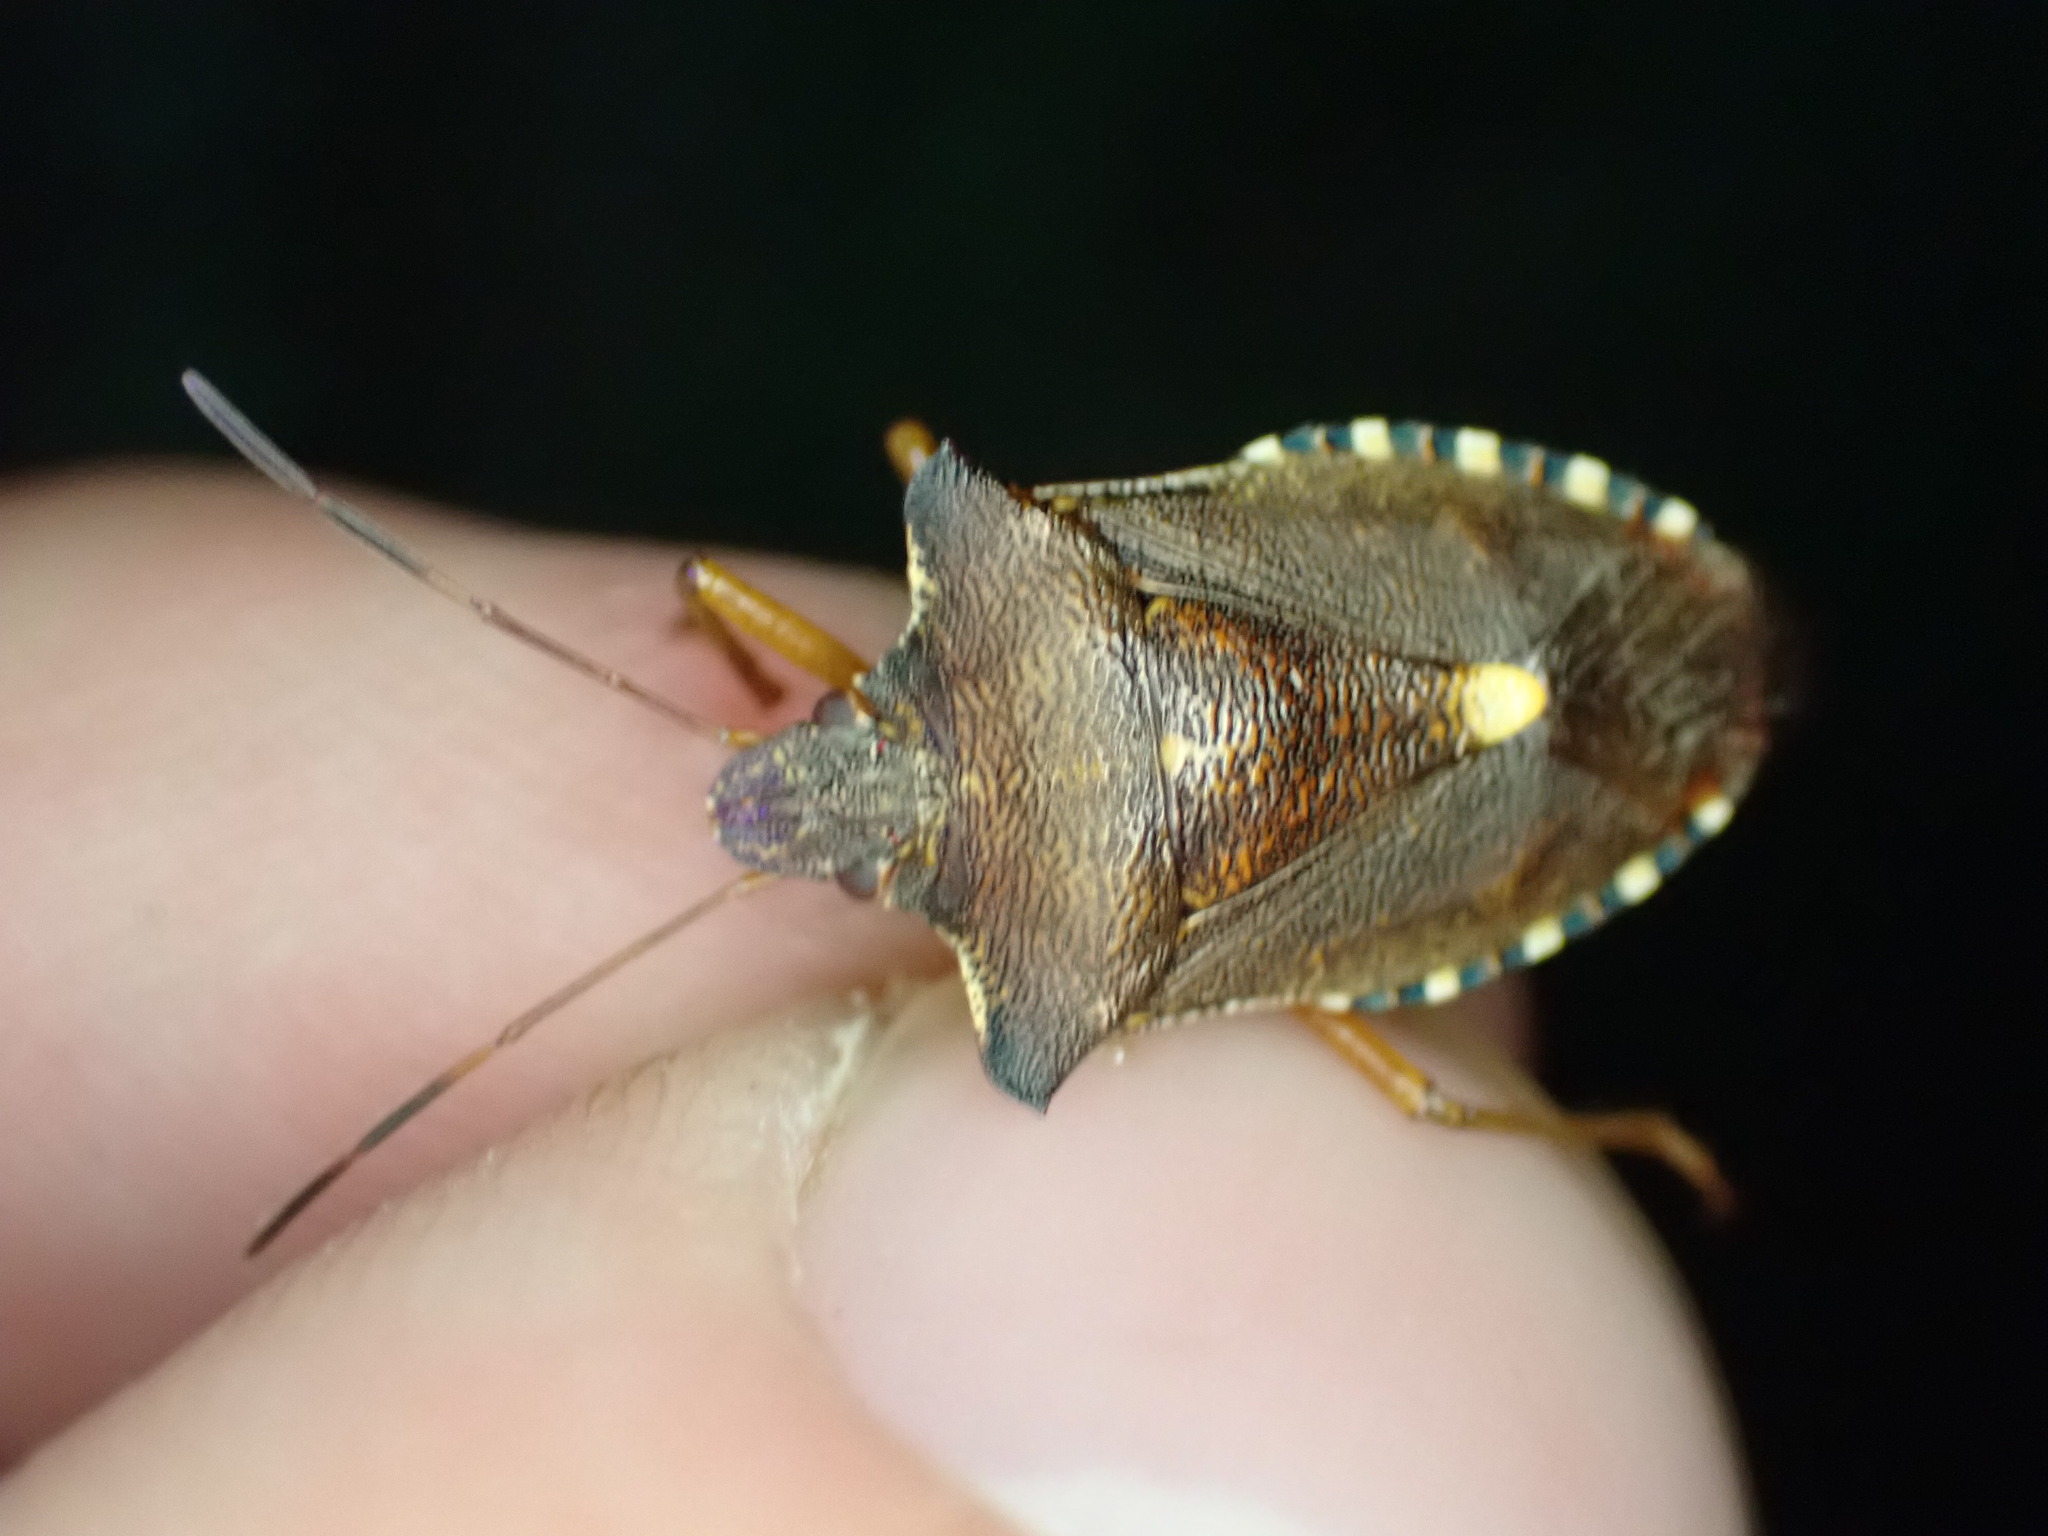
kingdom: Animalia
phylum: Arthropoda
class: Insecta
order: Hemiptera
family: Pentatomidae
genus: Pentatoma
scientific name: Pentatoma rufipes
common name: Forest bug
